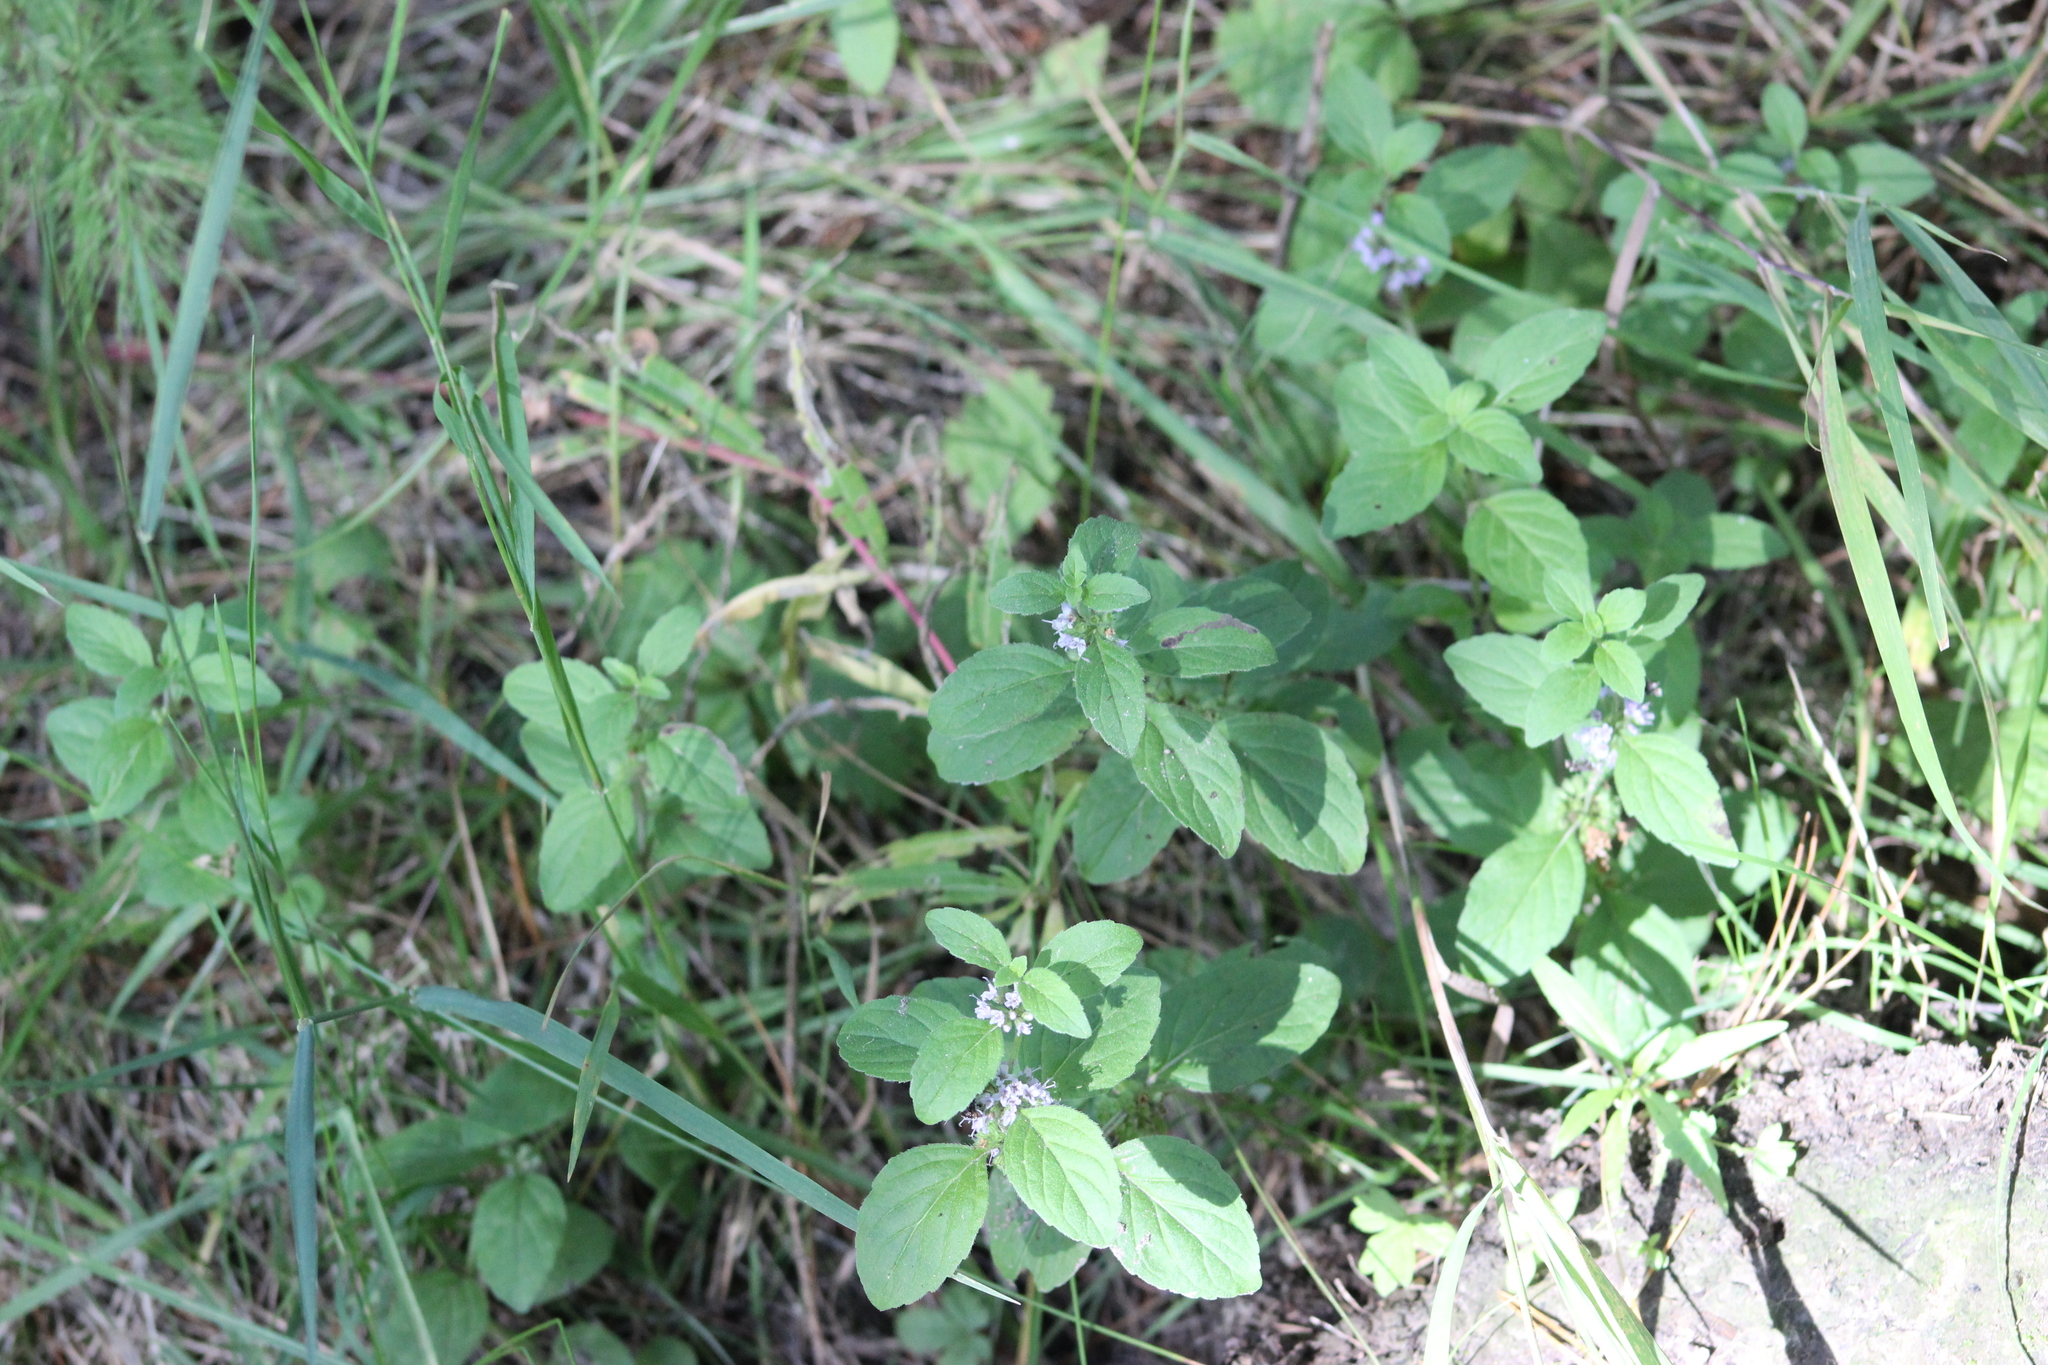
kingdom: Plantae
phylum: Tracheophyta
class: Magnoliopsida
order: Lamiales
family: Lamiaceae
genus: Mentha
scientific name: Mentha arvensis
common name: Corn mint
